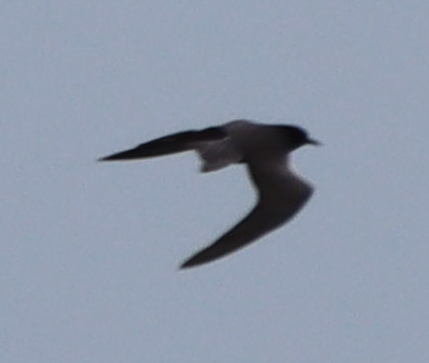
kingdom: Animalia
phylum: Chordata
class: Aves
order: Charadriiformes
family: Laridae
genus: Chlidonias
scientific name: Chlidonias niger
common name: Black tern
